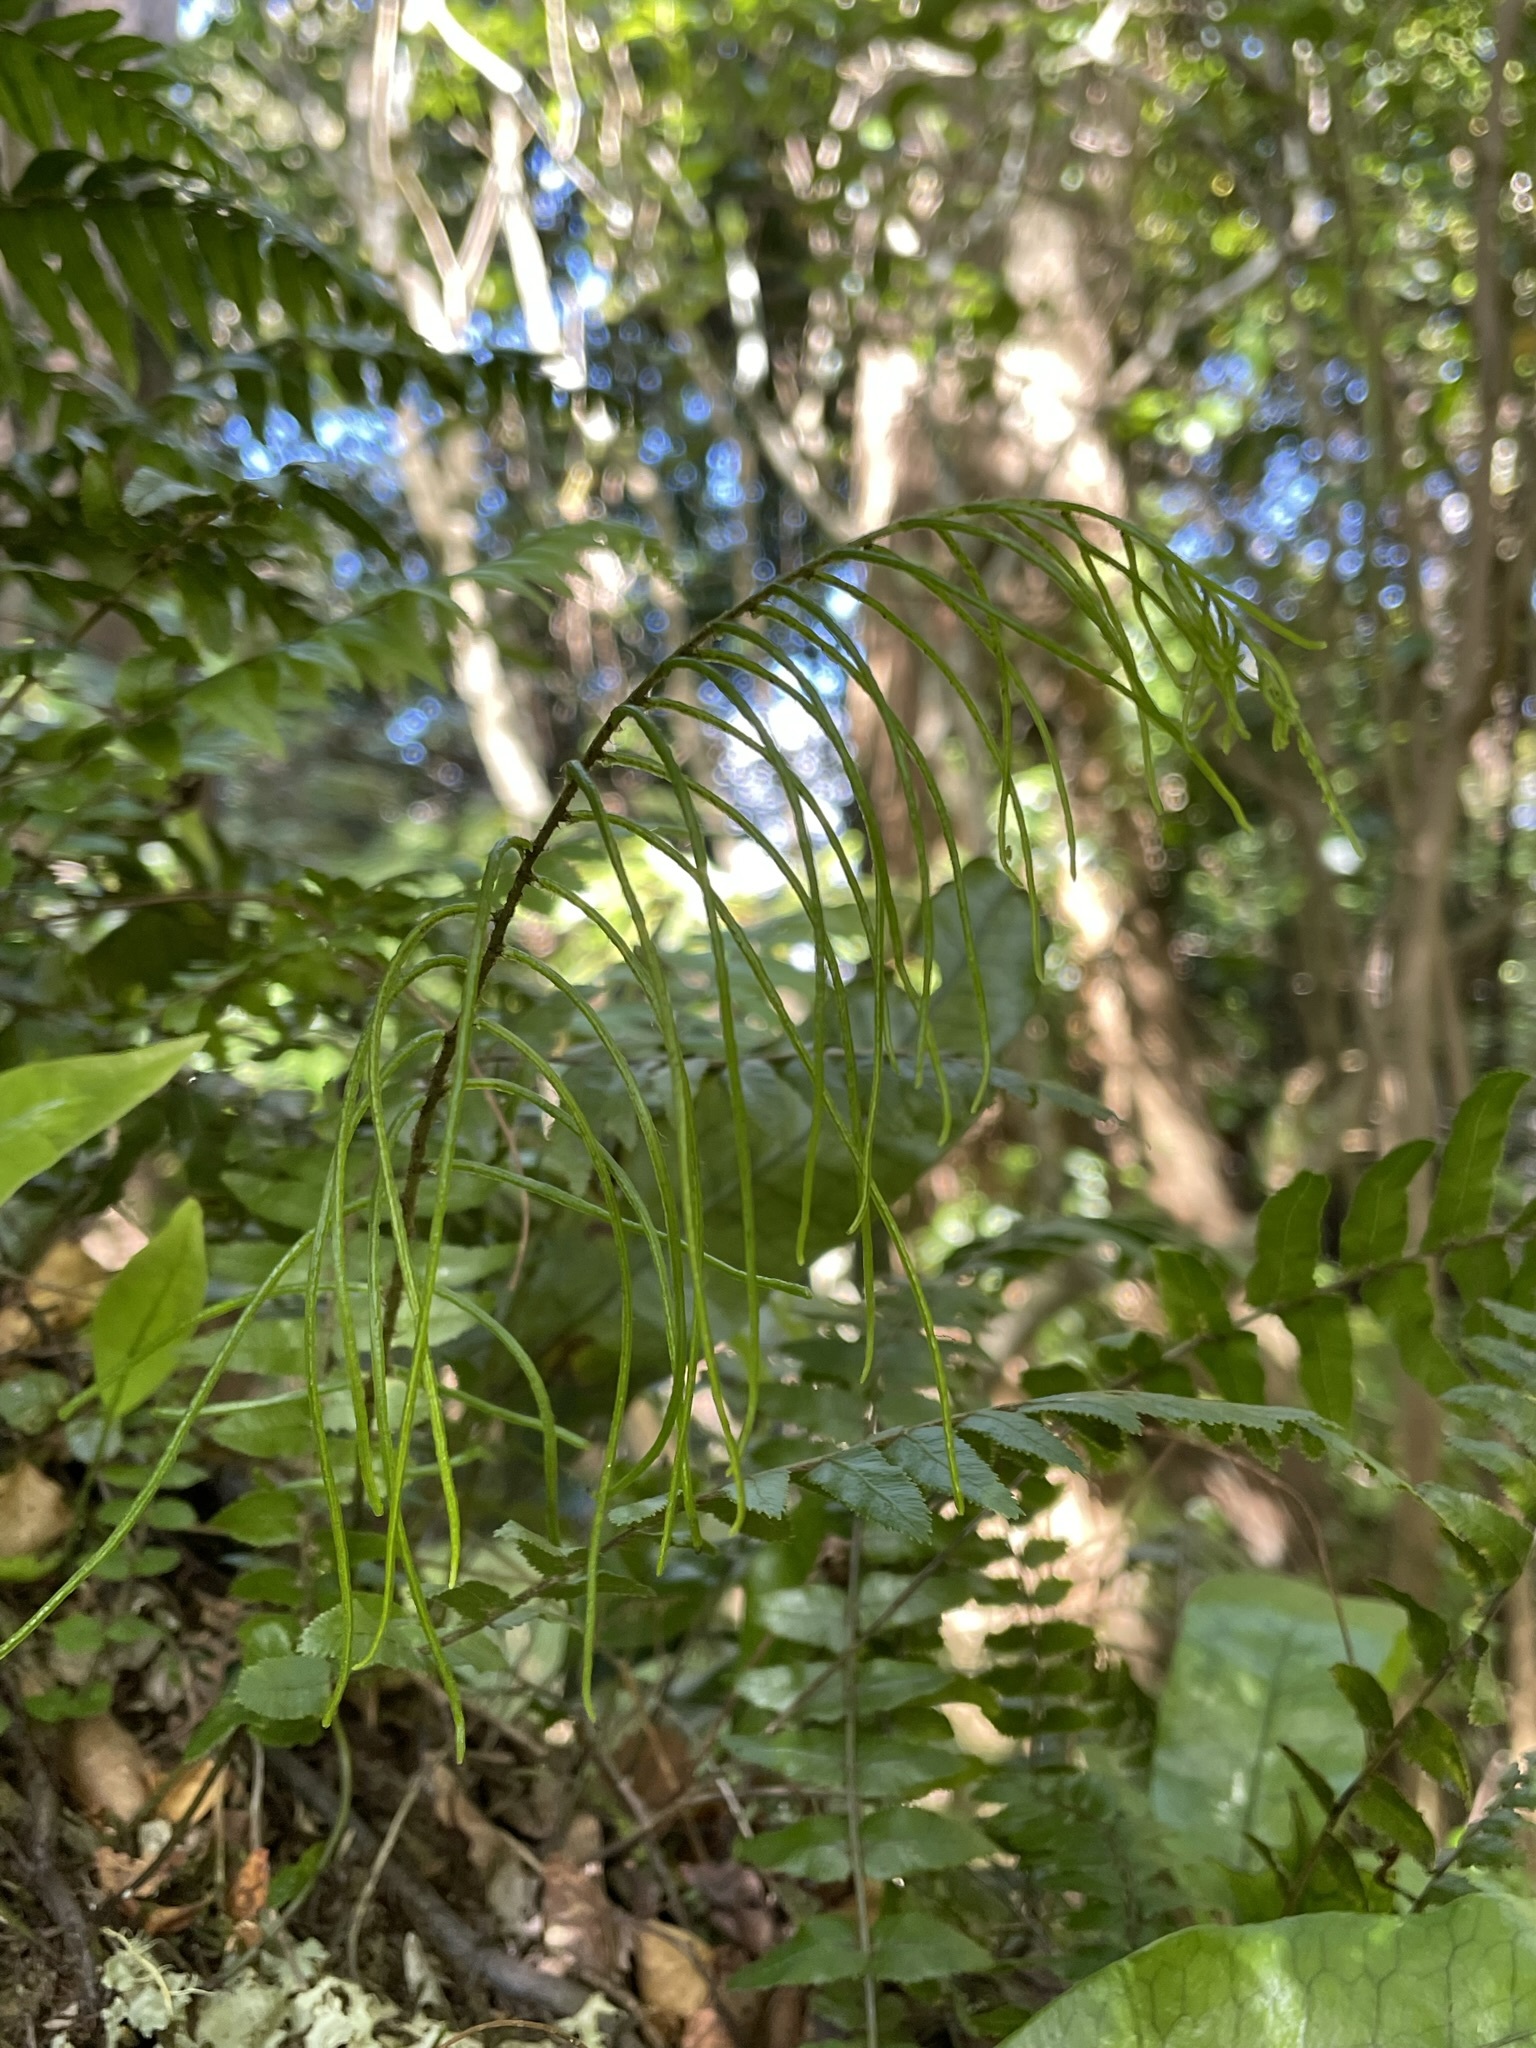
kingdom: Plantae
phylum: Tracheophyta
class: Polypodiopsida
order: Polypodiales
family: Blechnaceae
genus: Icarus
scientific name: Icarus filiformis
